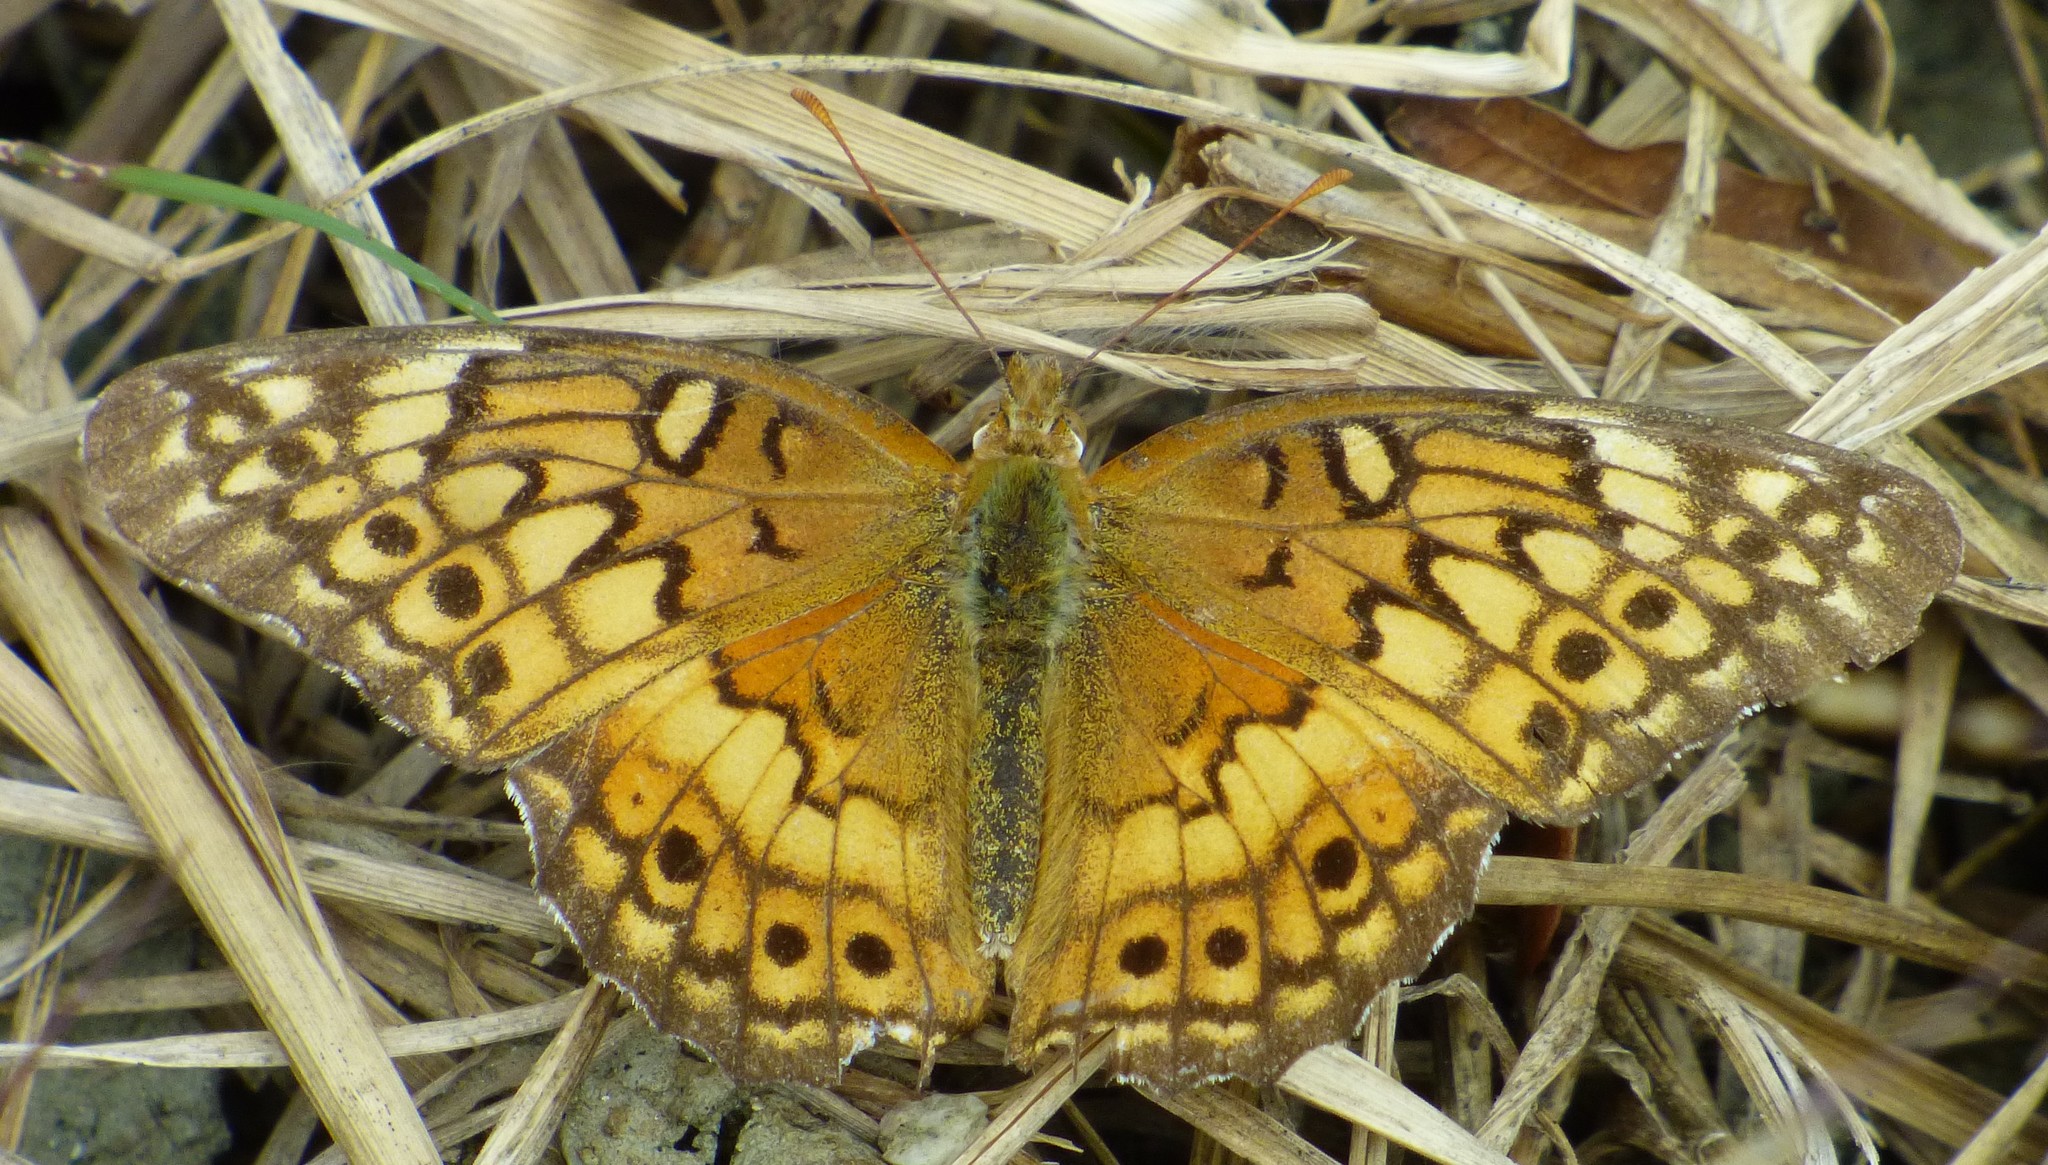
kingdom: Animalia
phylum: Arthropoda
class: Insecta
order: Lepidoptera
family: Nymphalidae
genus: Euptoieta
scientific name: Euptoieta claudia
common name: Variegated fritillary
